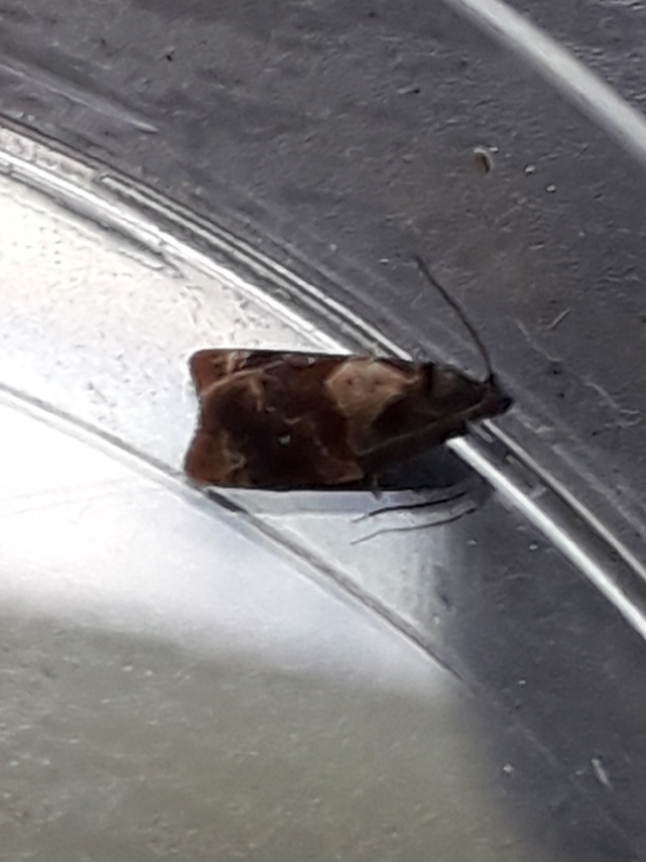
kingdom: Animalia
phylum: Arthropoda
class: Insecta
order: Lepidoptera
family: Tortricidae
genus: Ditula
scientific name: Ditula angustiorana
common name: Red-barred tortrix
